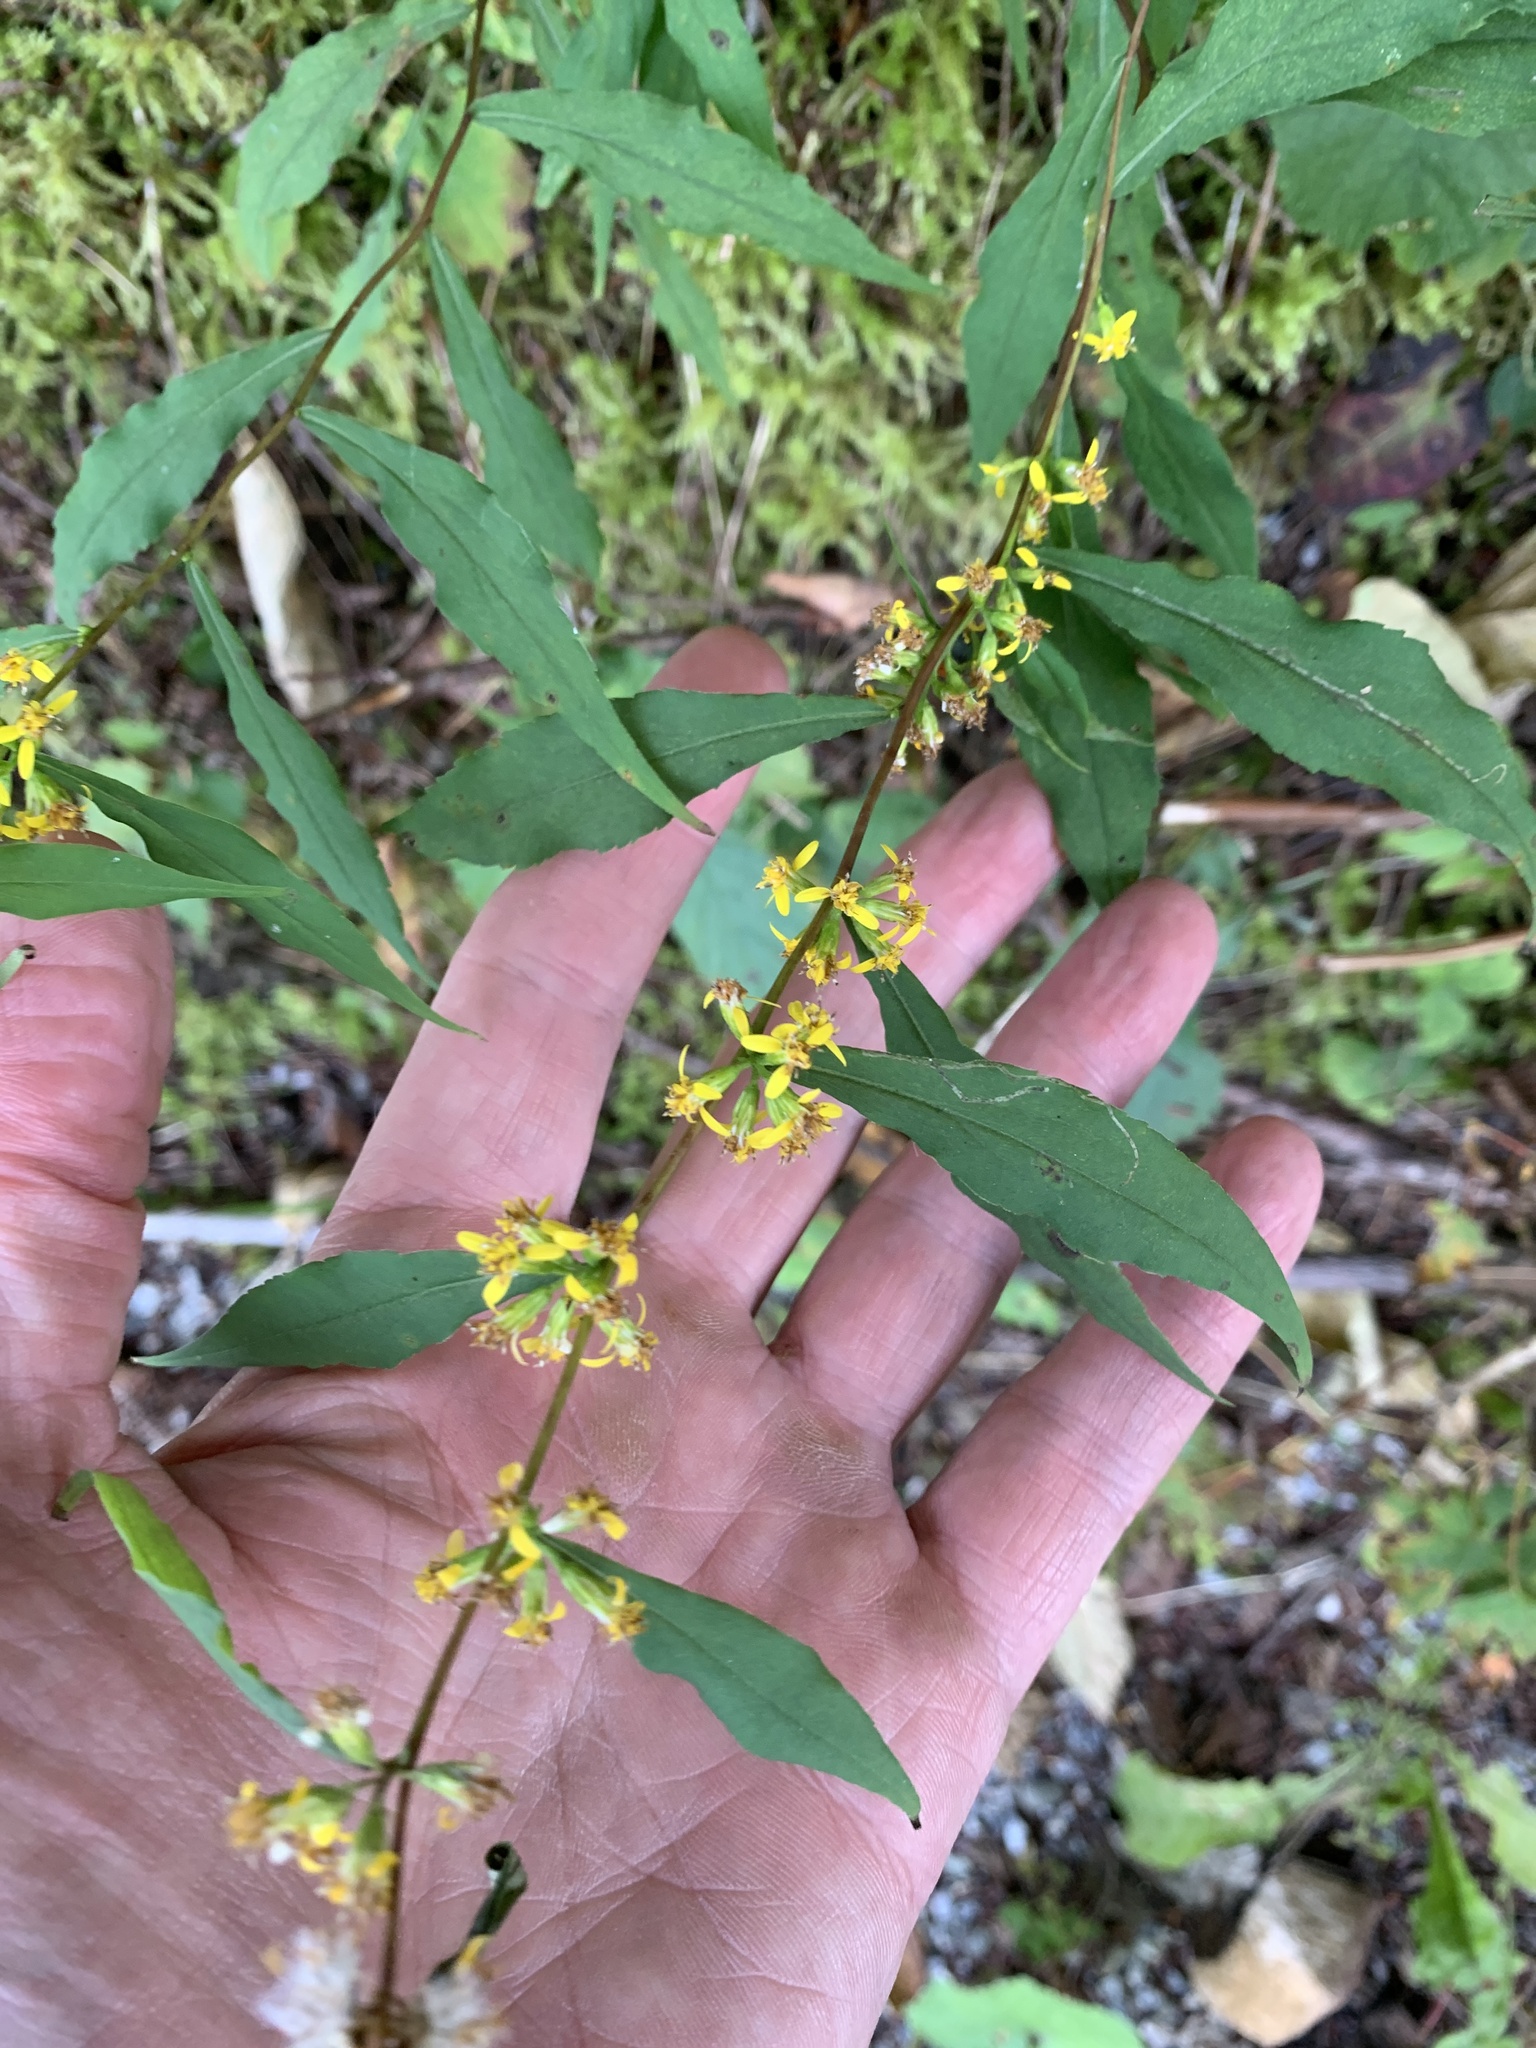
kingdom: Plantae
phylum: Tracheophyta
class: Magnoliopsida
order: Asterales
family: Asteraceae
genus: Solidago
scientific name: Solidago caesia
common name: Woodland goldenrod
